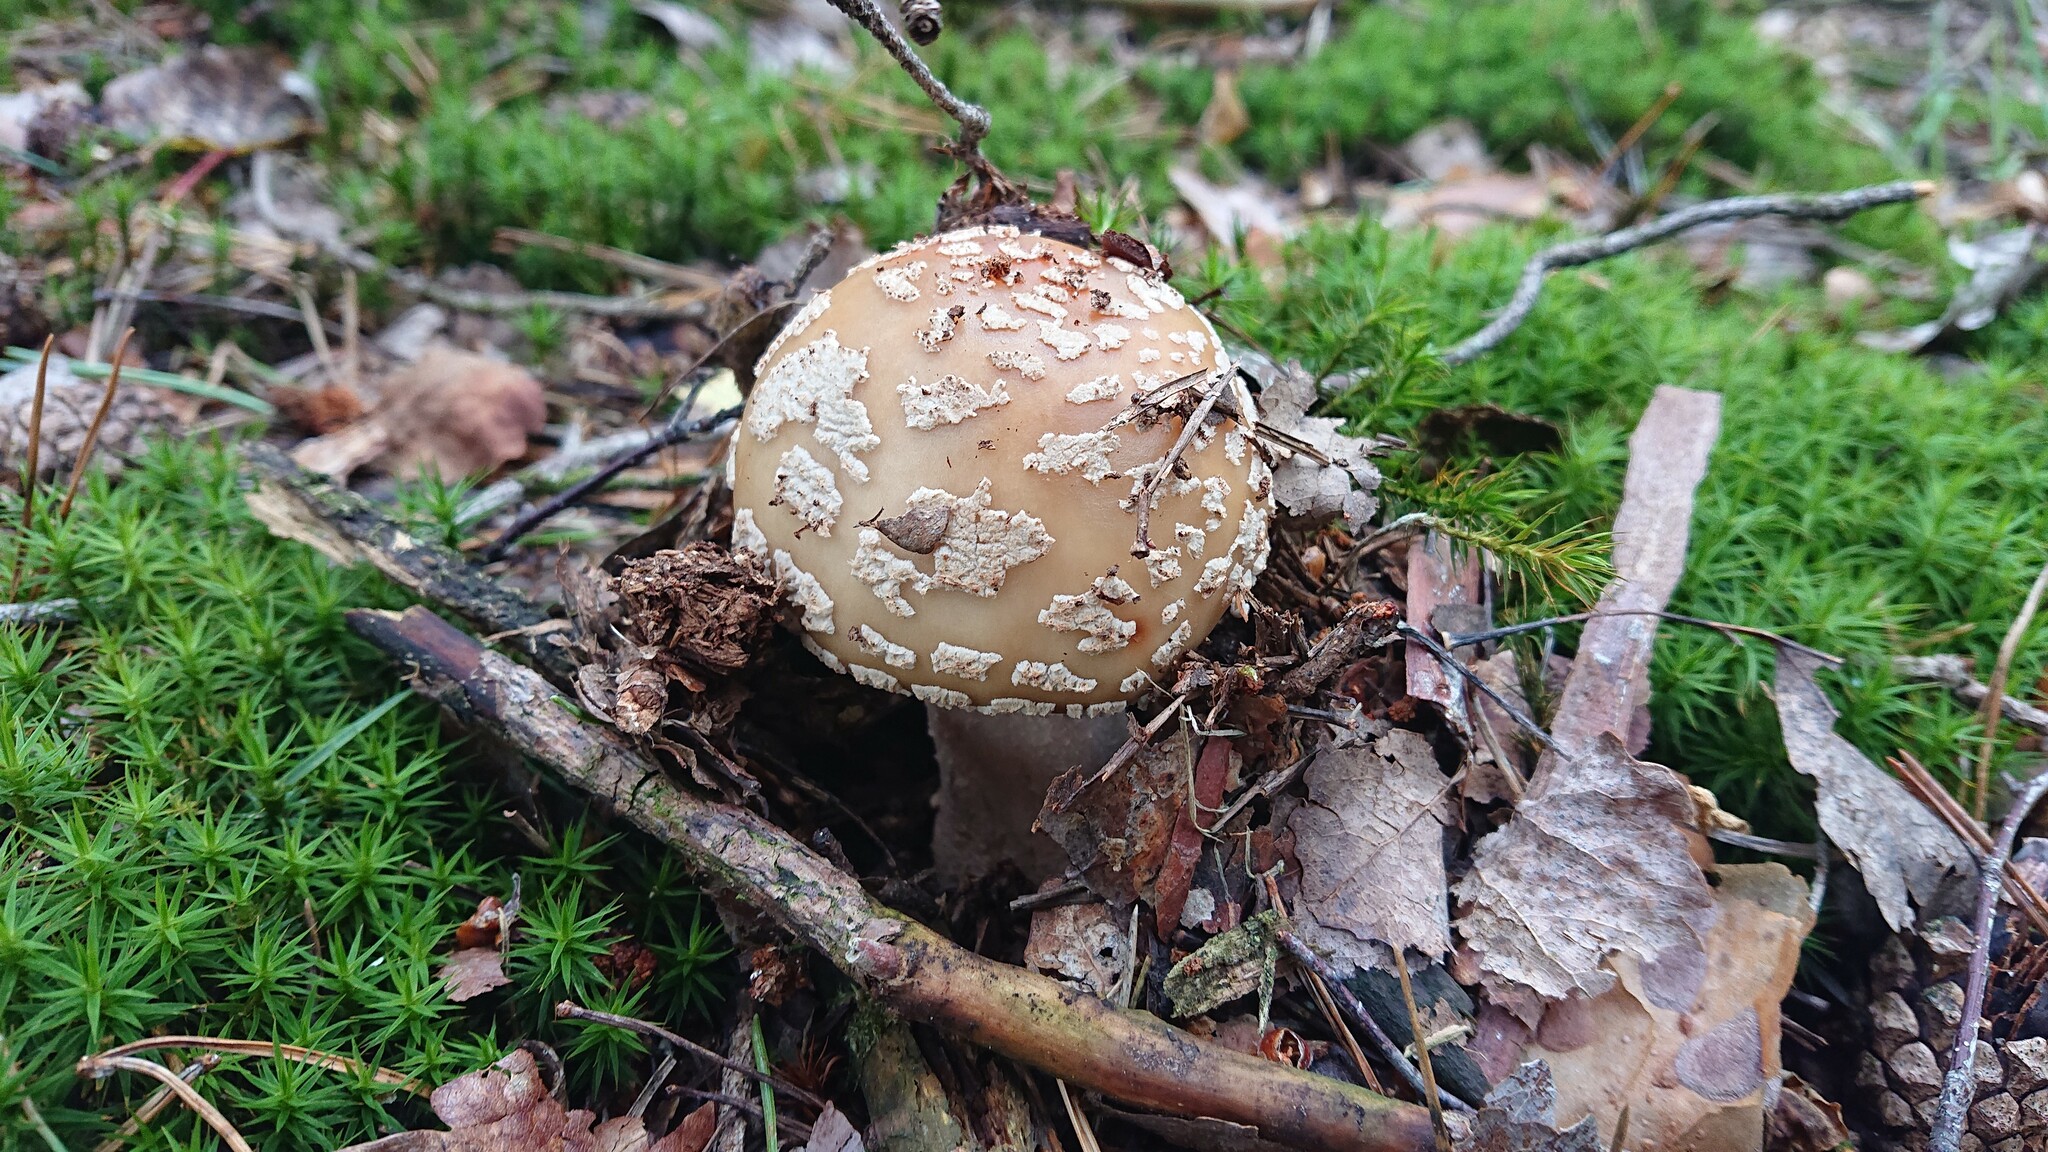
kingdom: Fungi
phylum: Basidiomycota
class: Agaricomycetes
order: Agaricales
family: Amanitaceae
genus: Amanita
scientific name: Amanita rubescens
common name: Blusher
